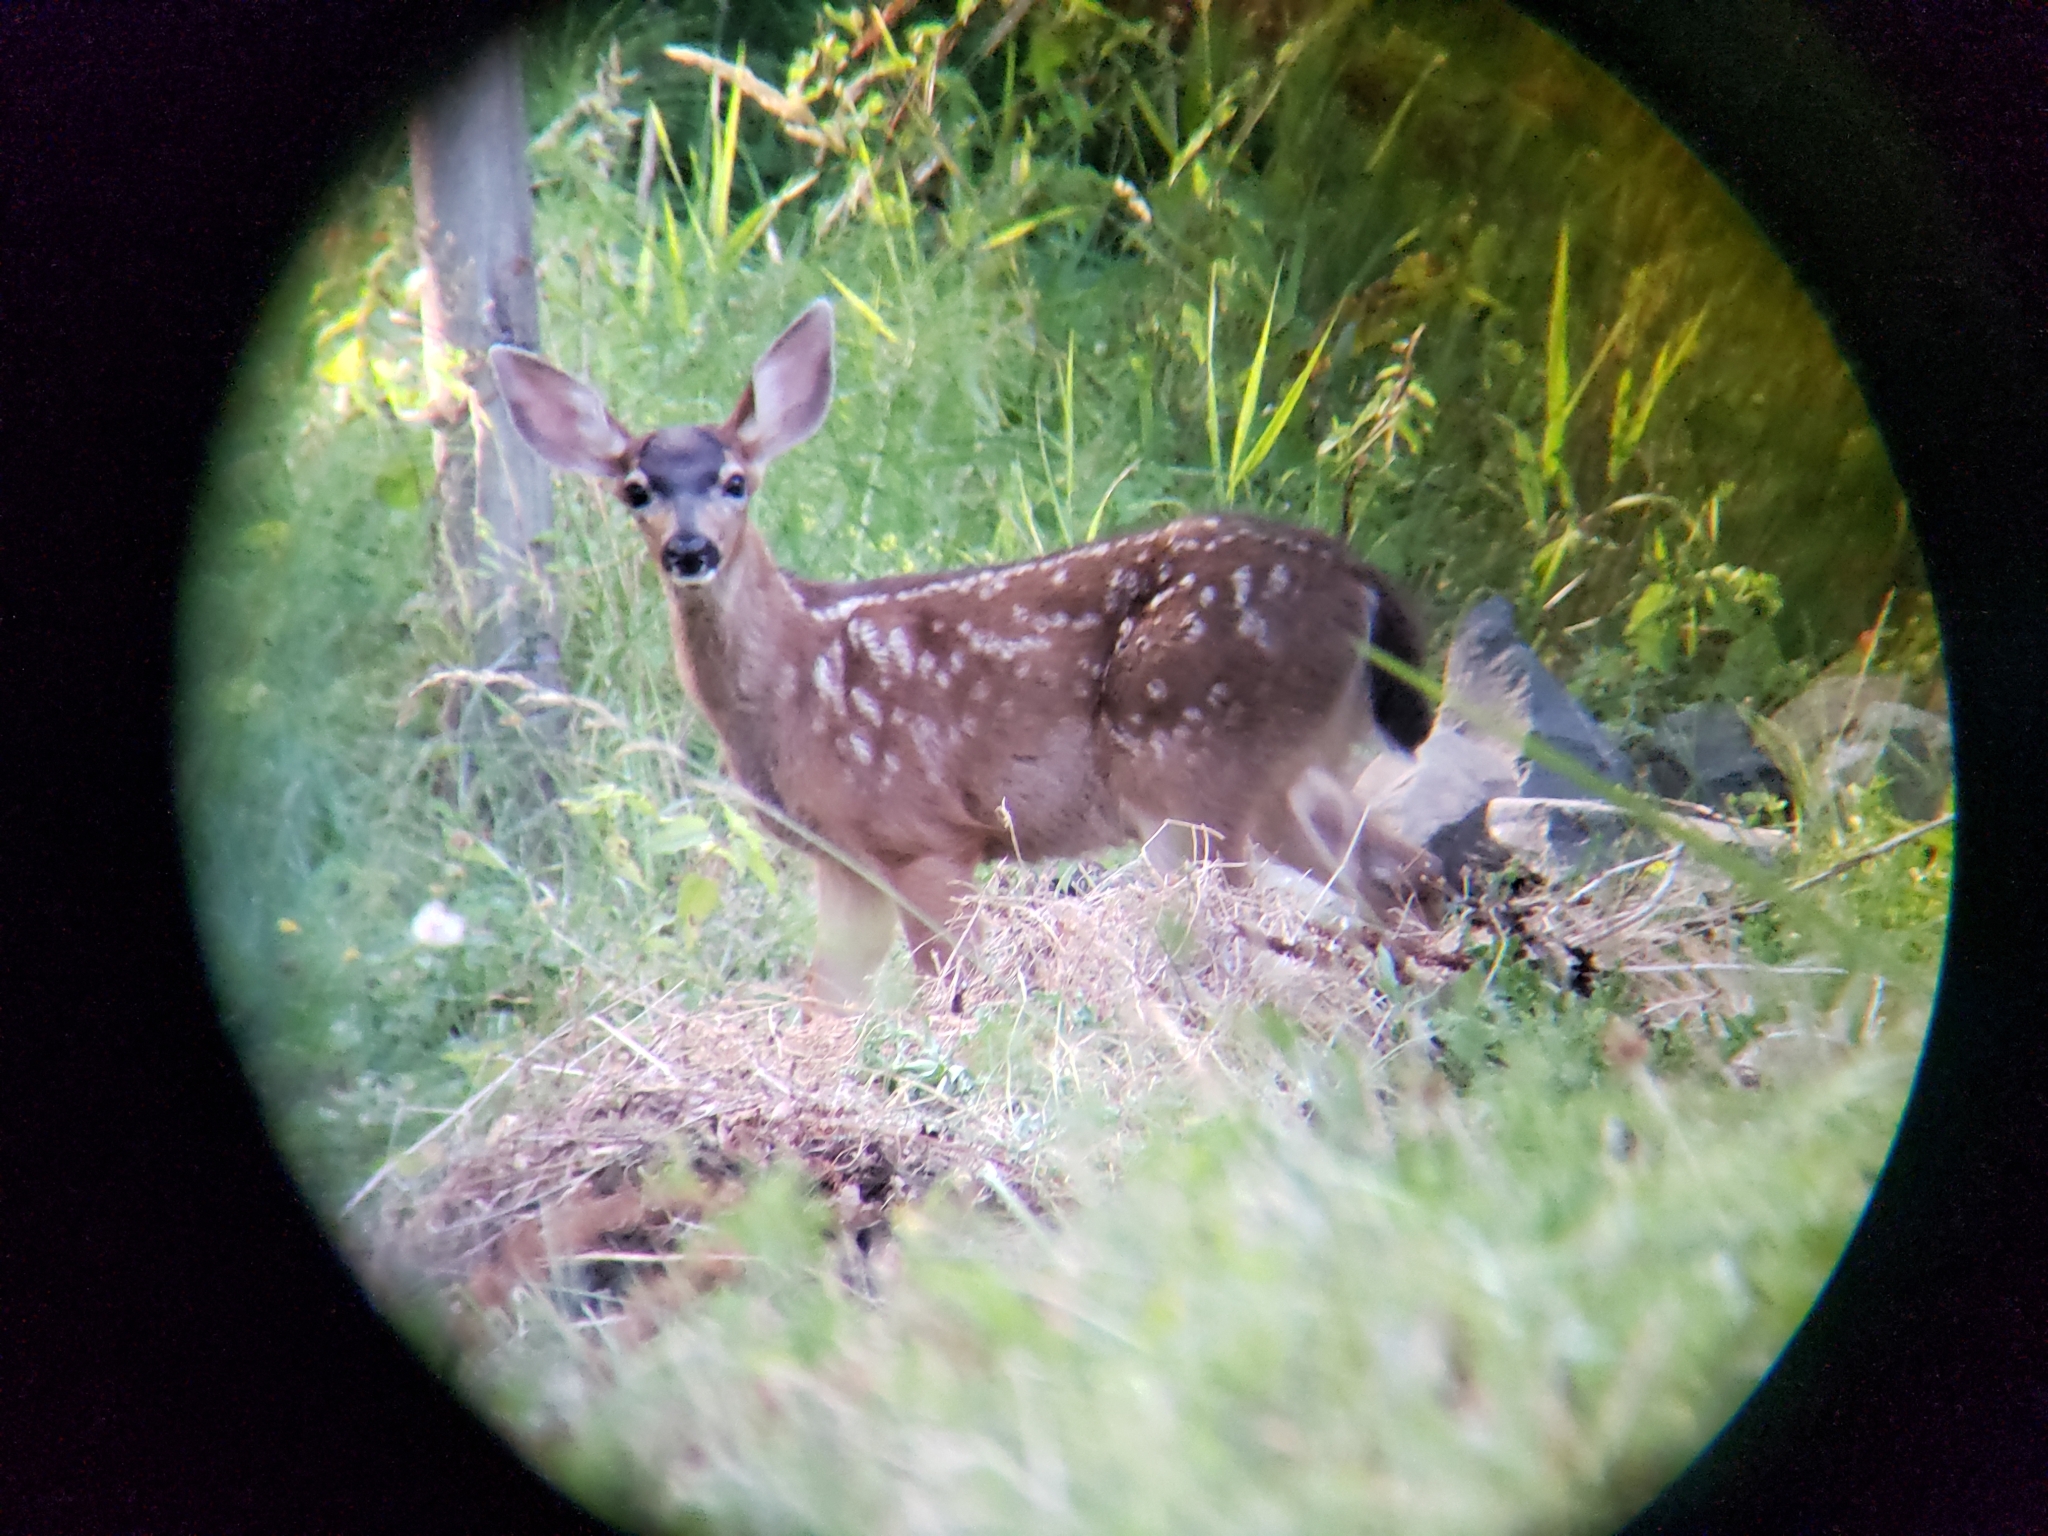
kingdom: Animalia
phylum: Chordata
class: Mammalia
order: Artiodactyla
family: Cervidae
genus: Odocoileus
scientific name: Odocoileus hemionus
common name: Mule deer
